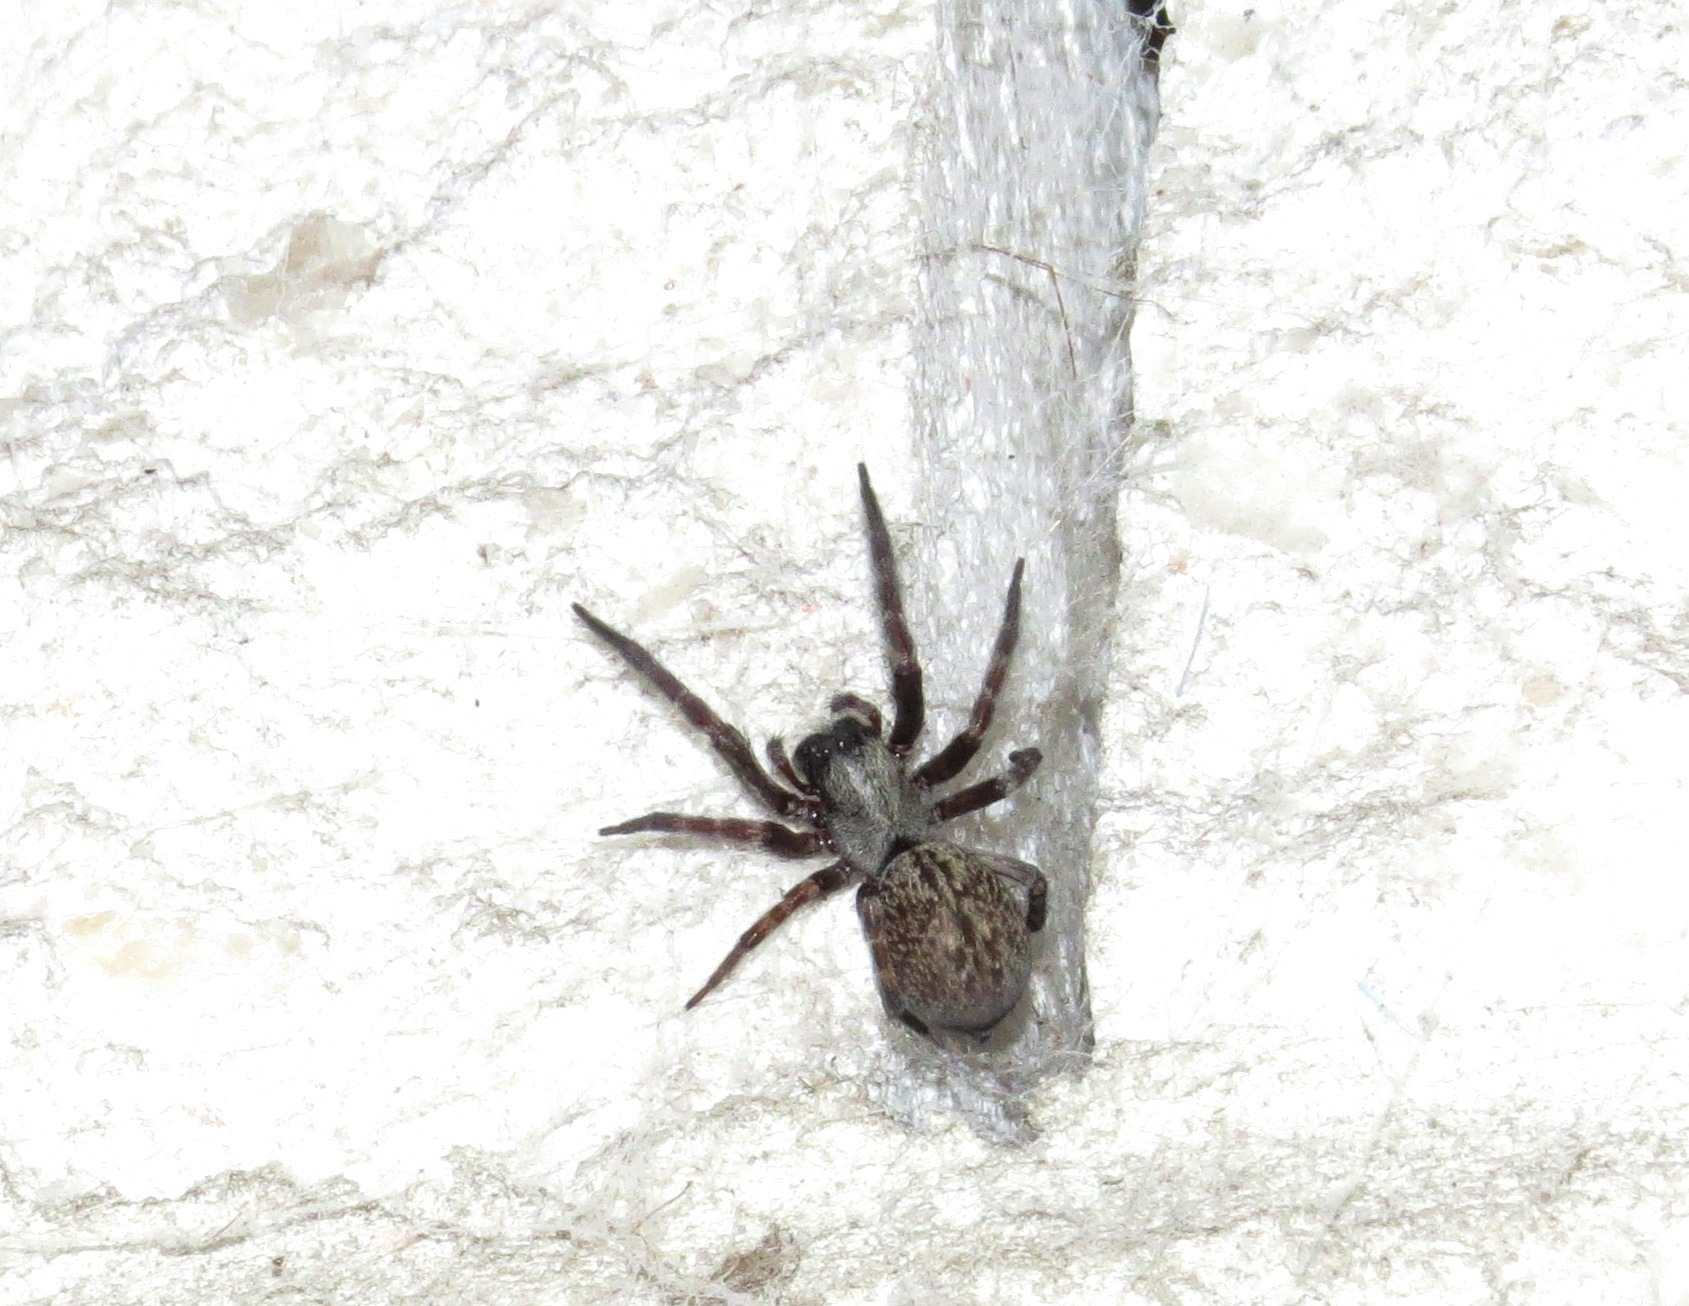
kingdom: Animalia
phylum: Arthropoda
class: Arachnida
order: Araneae
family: Desidae
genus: Badumna
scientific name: Badumna longinqua
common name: Gray house spider
